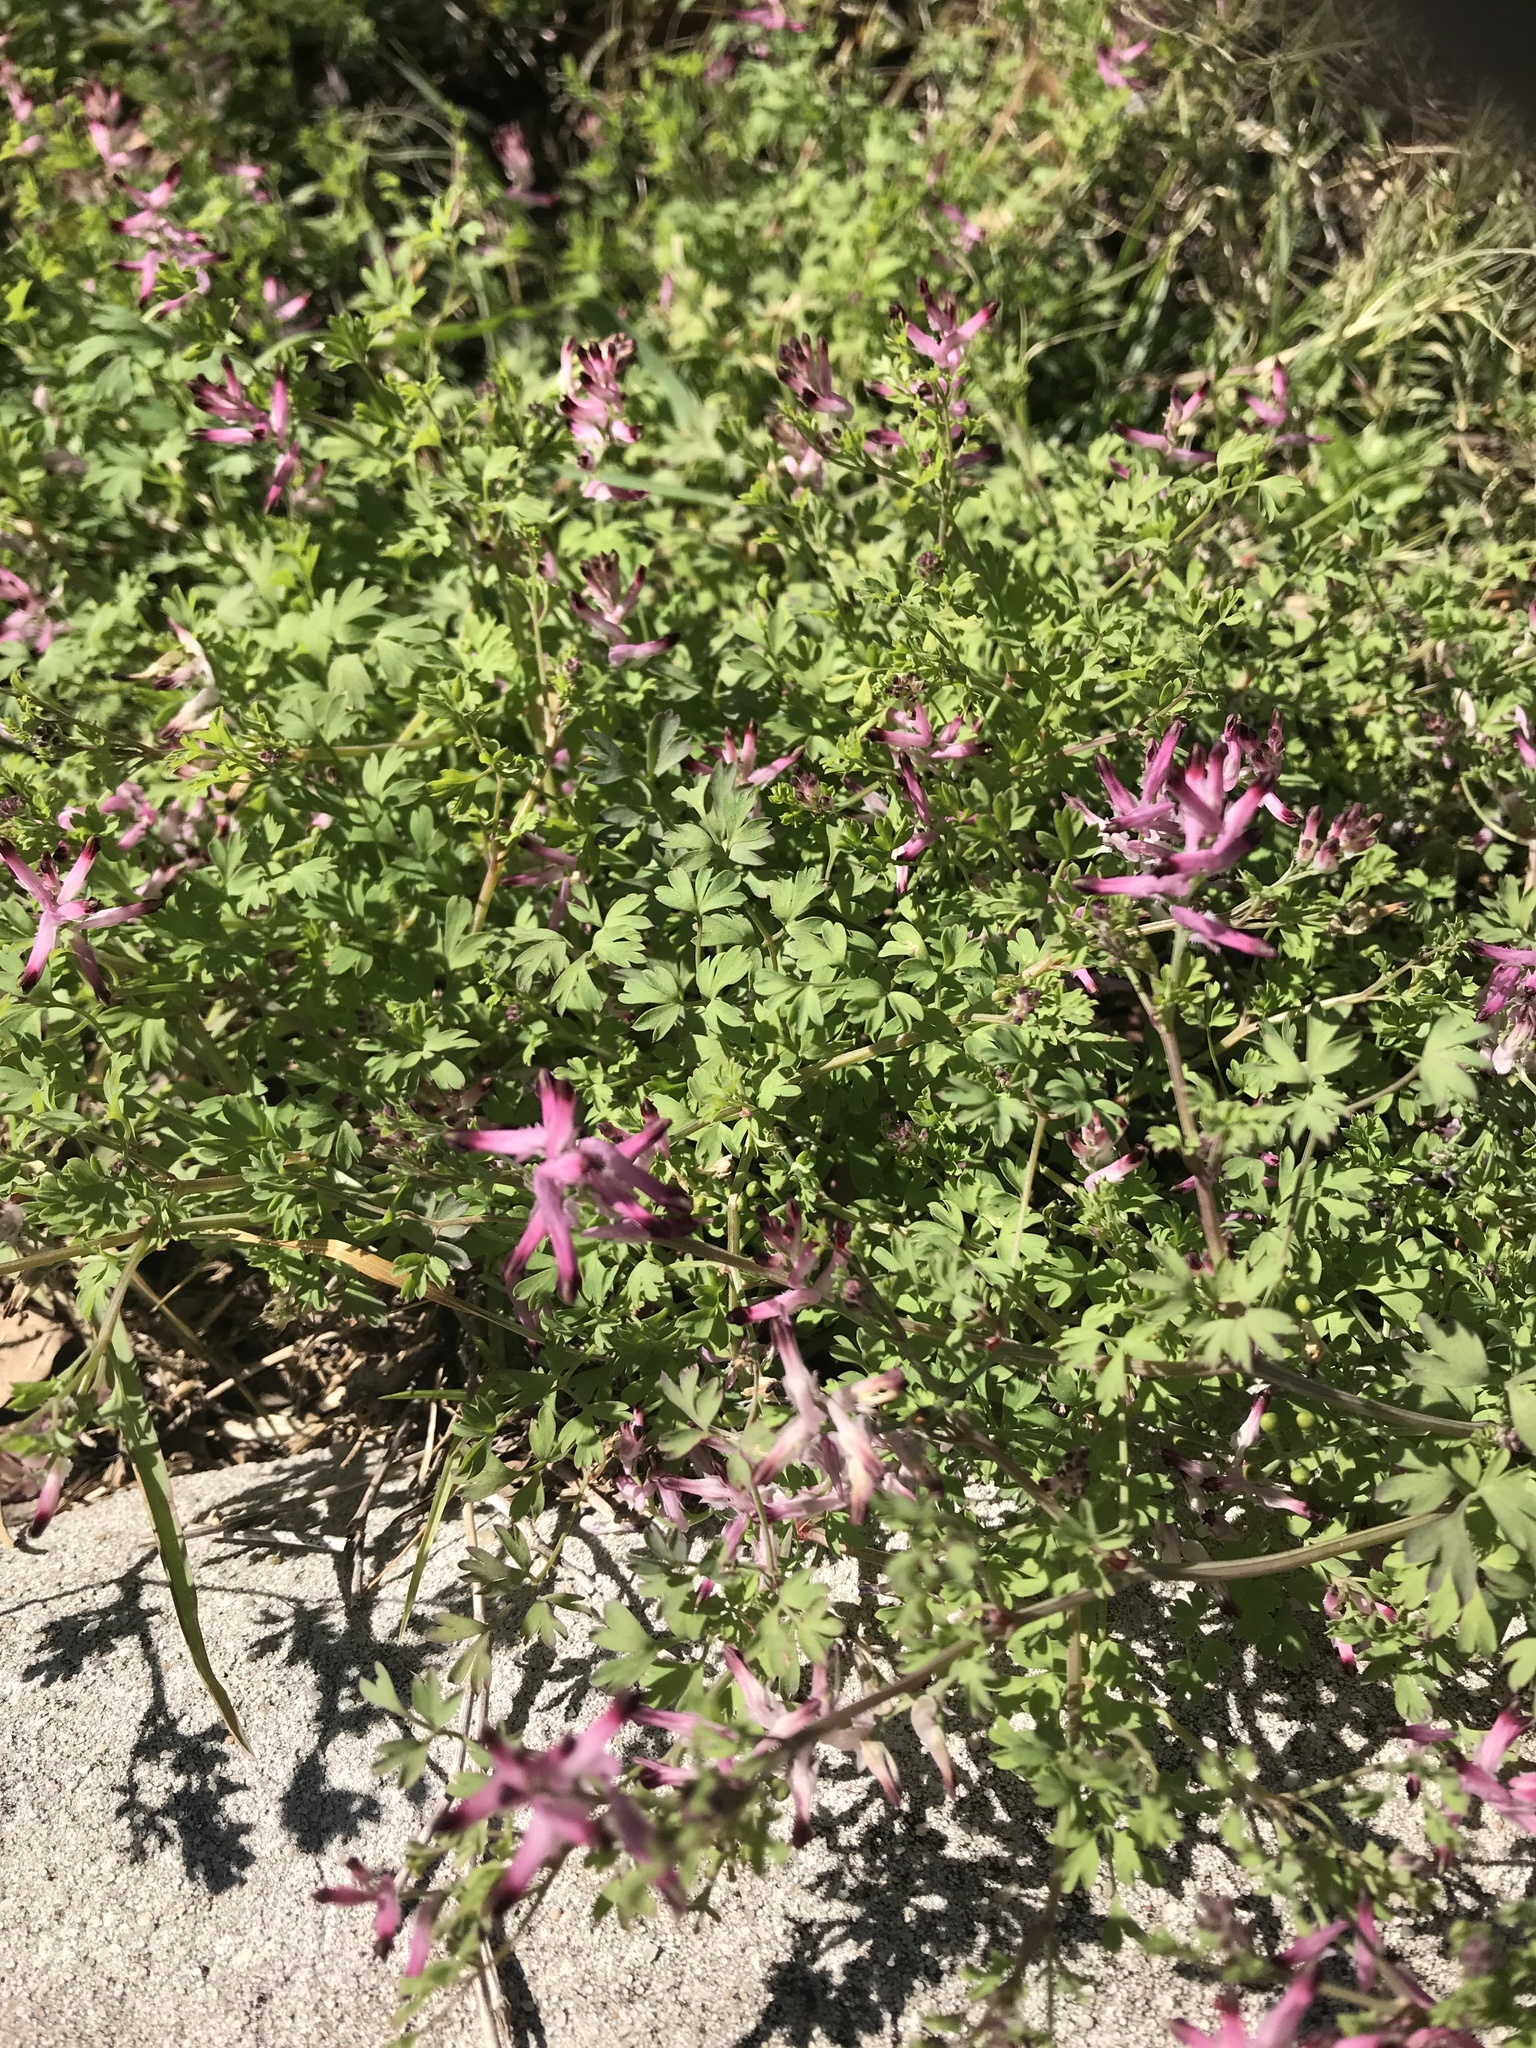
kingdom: Plantae
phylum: Tracheophyta
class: Magnoliopsida
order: Ranunculales
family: Papaveraceae
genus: Fumaria
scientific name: Fumaria muralis
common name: Common ramping-fumitory
